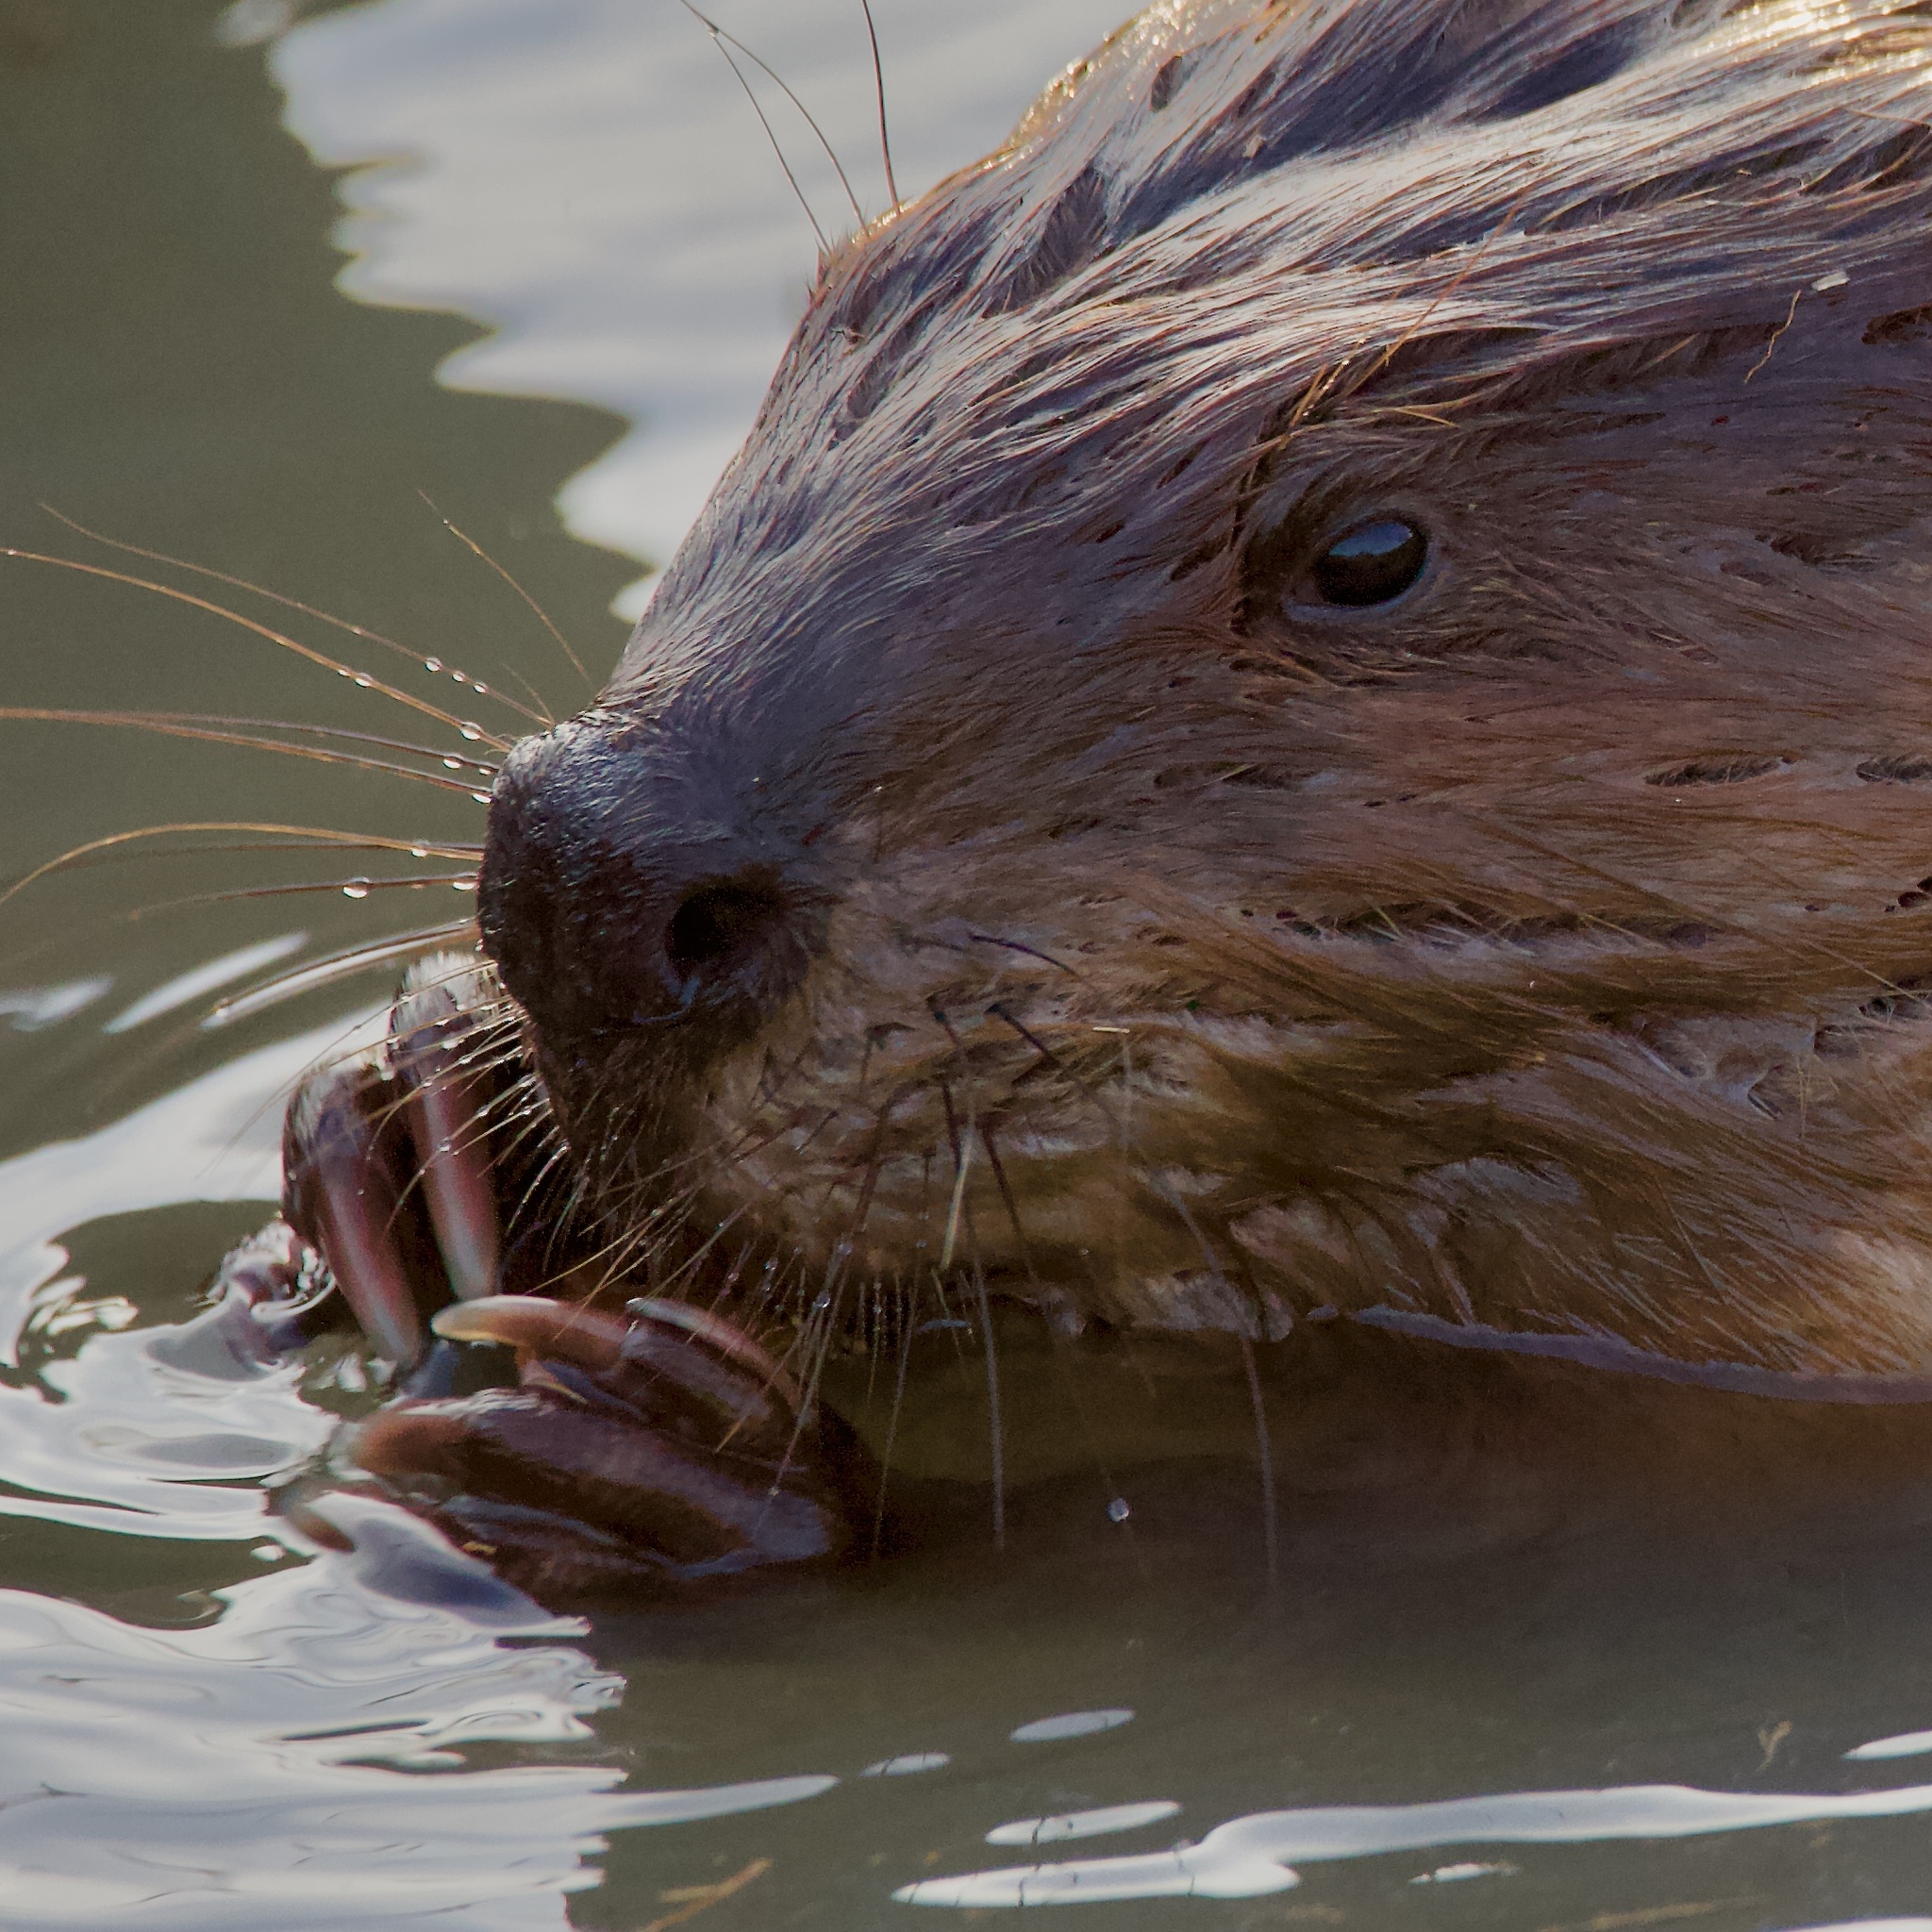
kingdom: Animalia
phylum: Chordata
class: Mammalia
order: Rodentia
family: Castoridae
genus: Castor
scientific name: Castor canadensis
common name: American beaver
